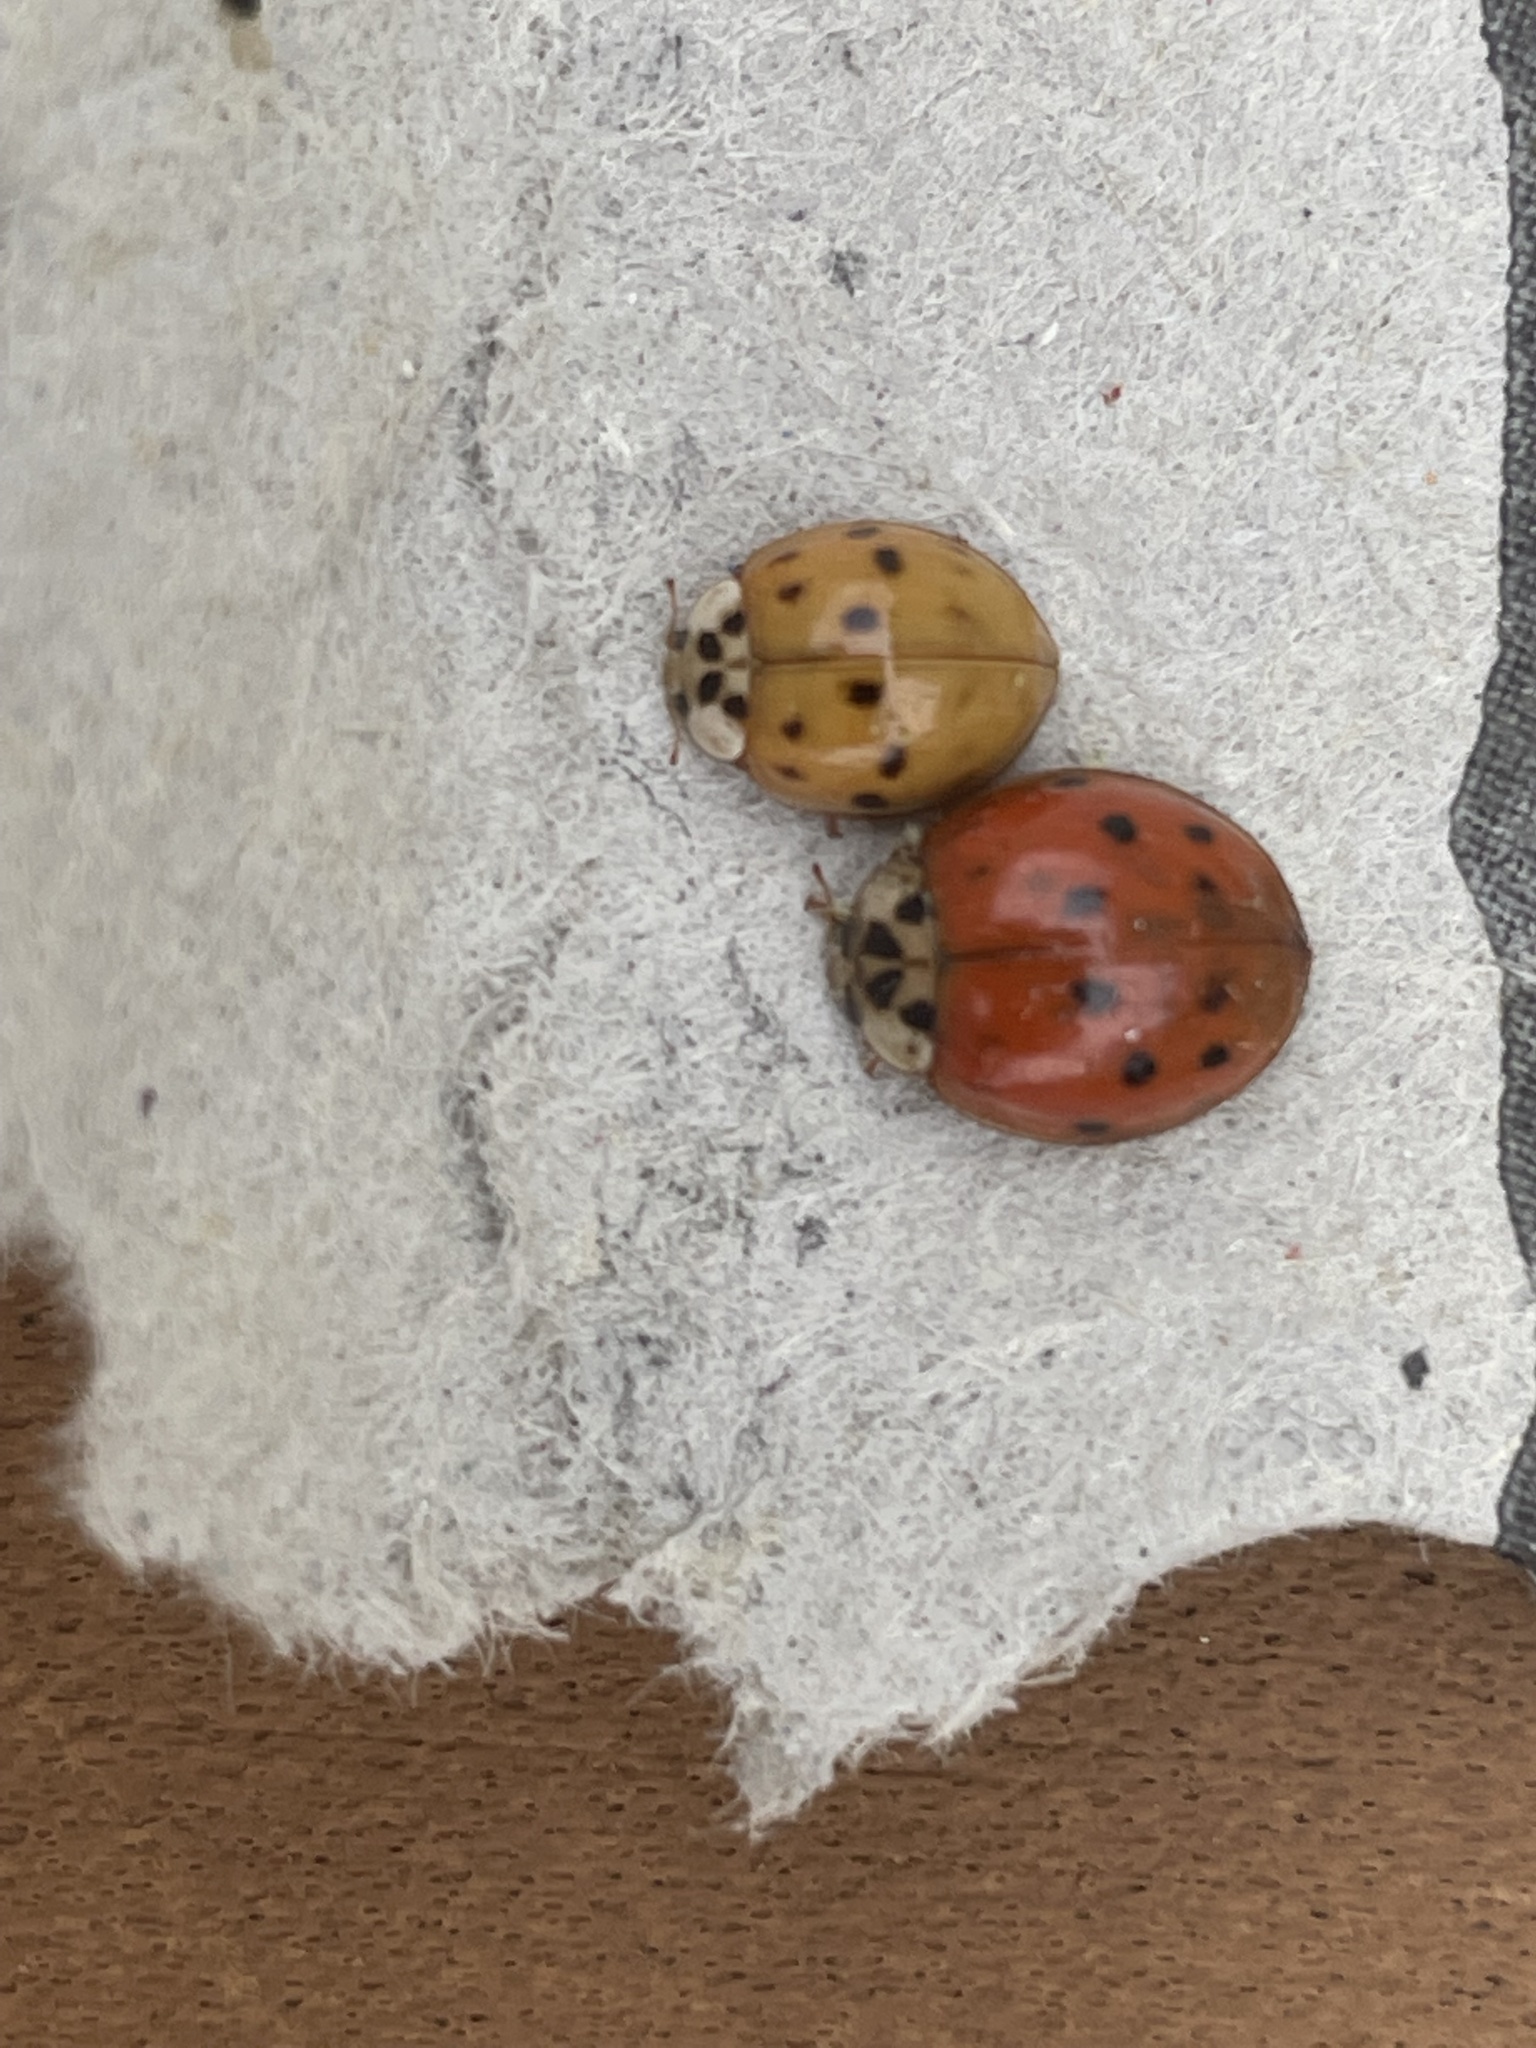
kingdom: Animalia
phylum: Arthropoda
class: Insecta
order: Coleoptera
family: Coccinellidae
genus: Harmonia
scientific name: Harmonia axyridis
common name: Harlequin ladybird
